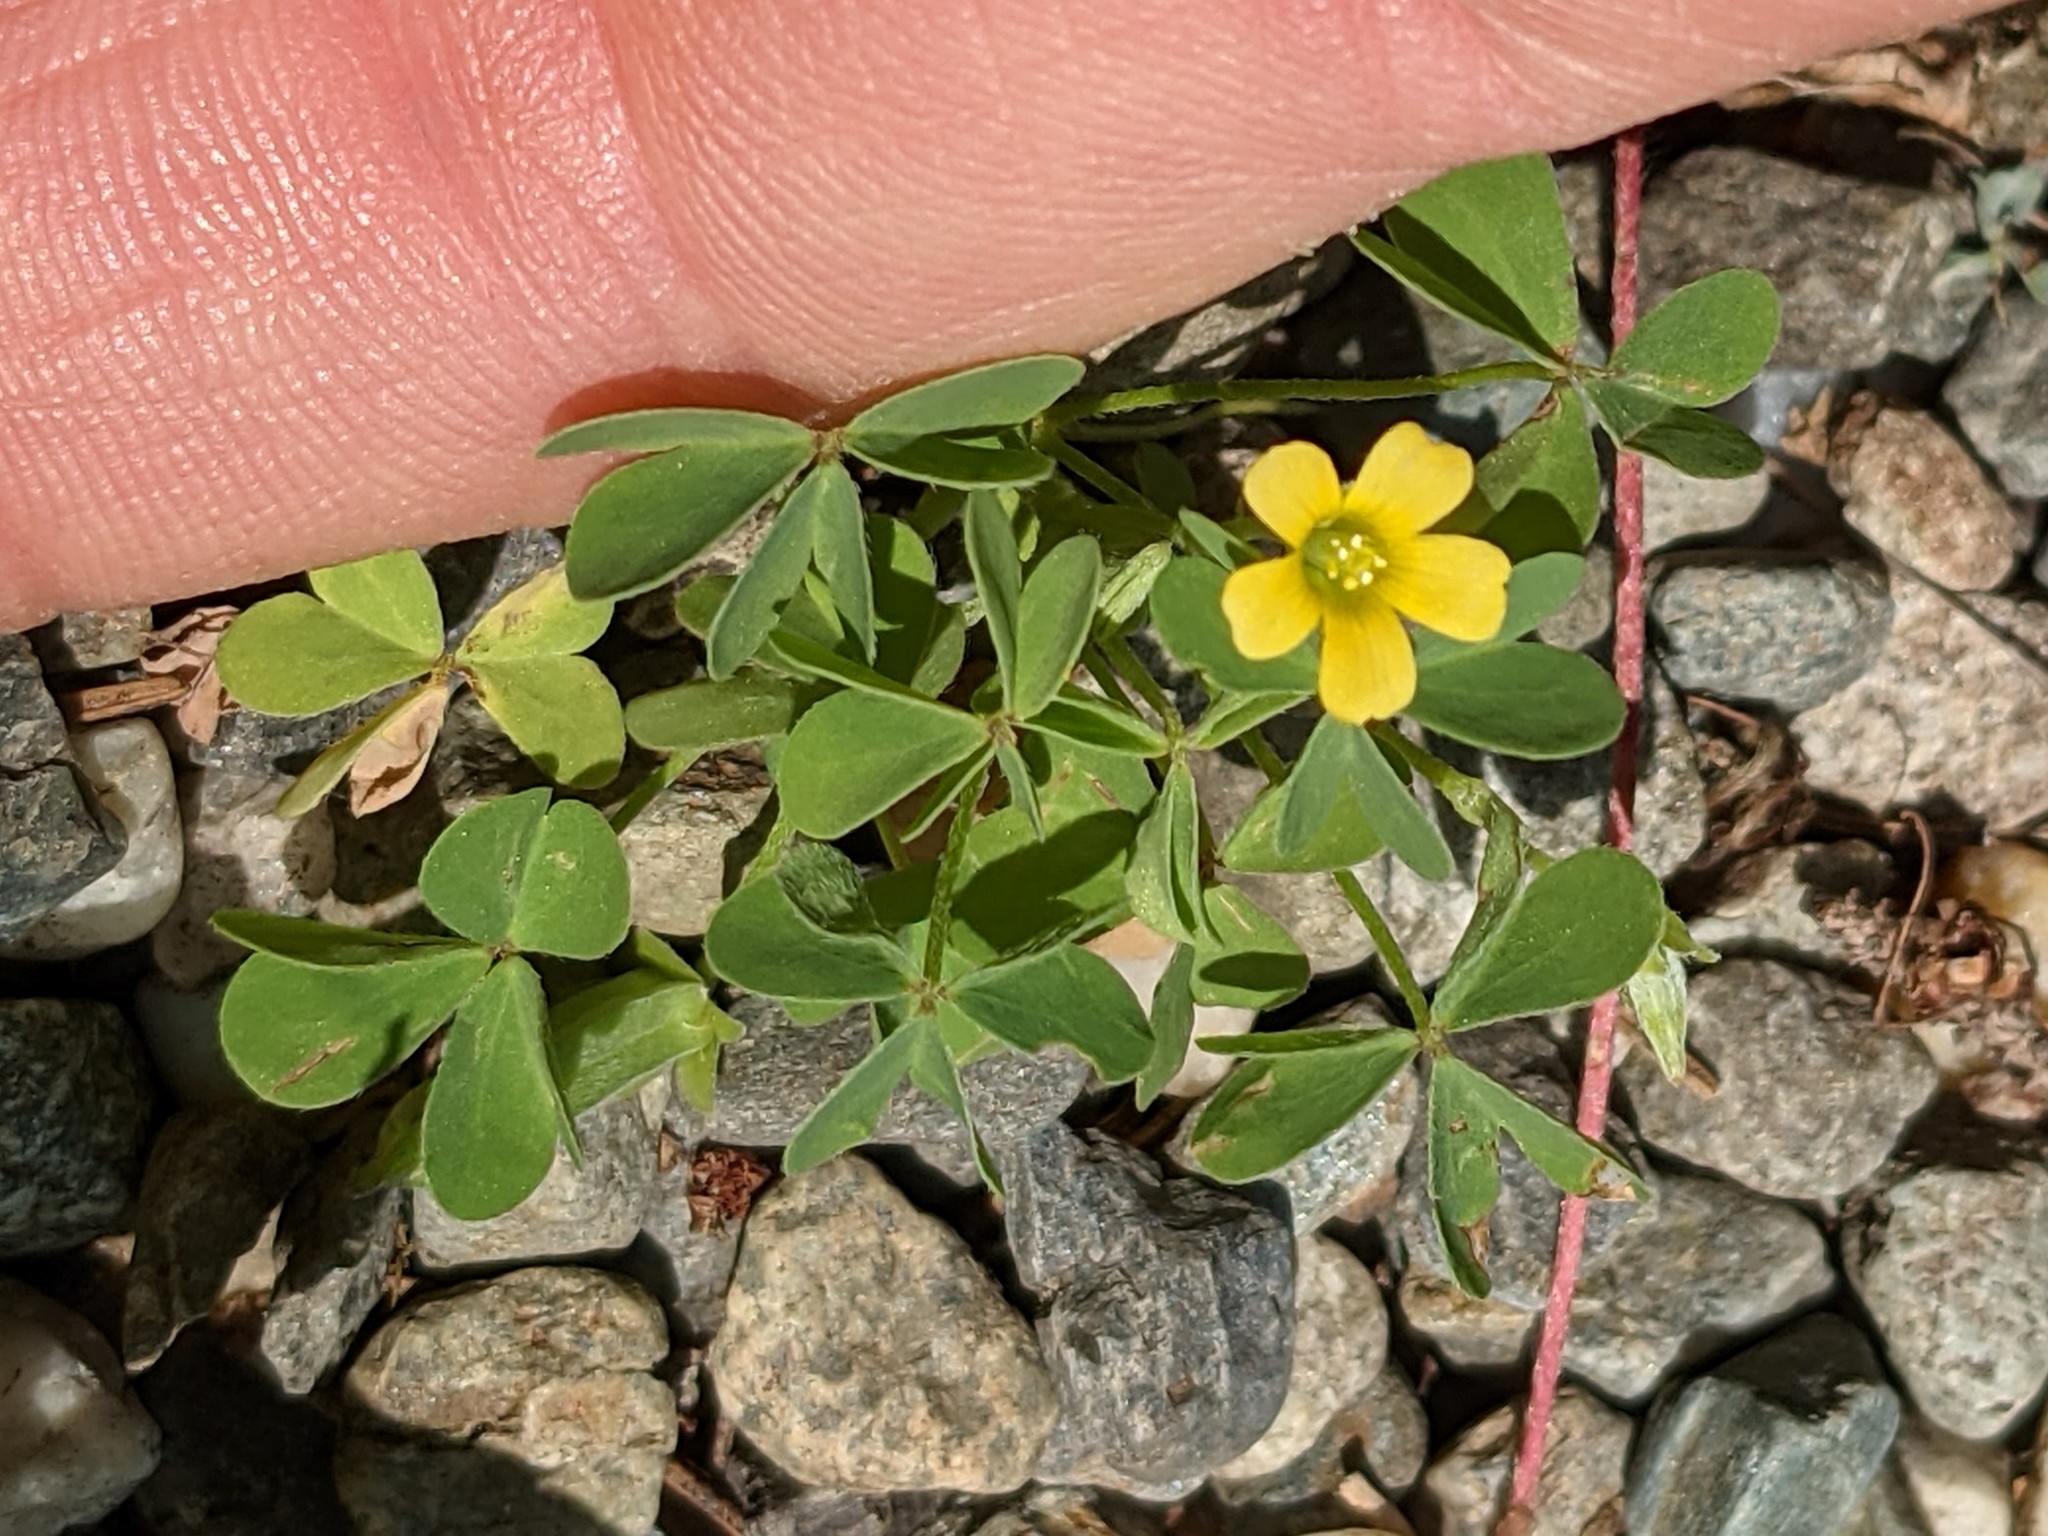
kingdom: Plantae
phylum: Tracheophyta
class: Magnoliopsida
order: Oxalidales
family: Oxalidaceae
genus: Oxalis
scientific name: Oxalis corniculata
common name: Procumbent yellow-sorrel
